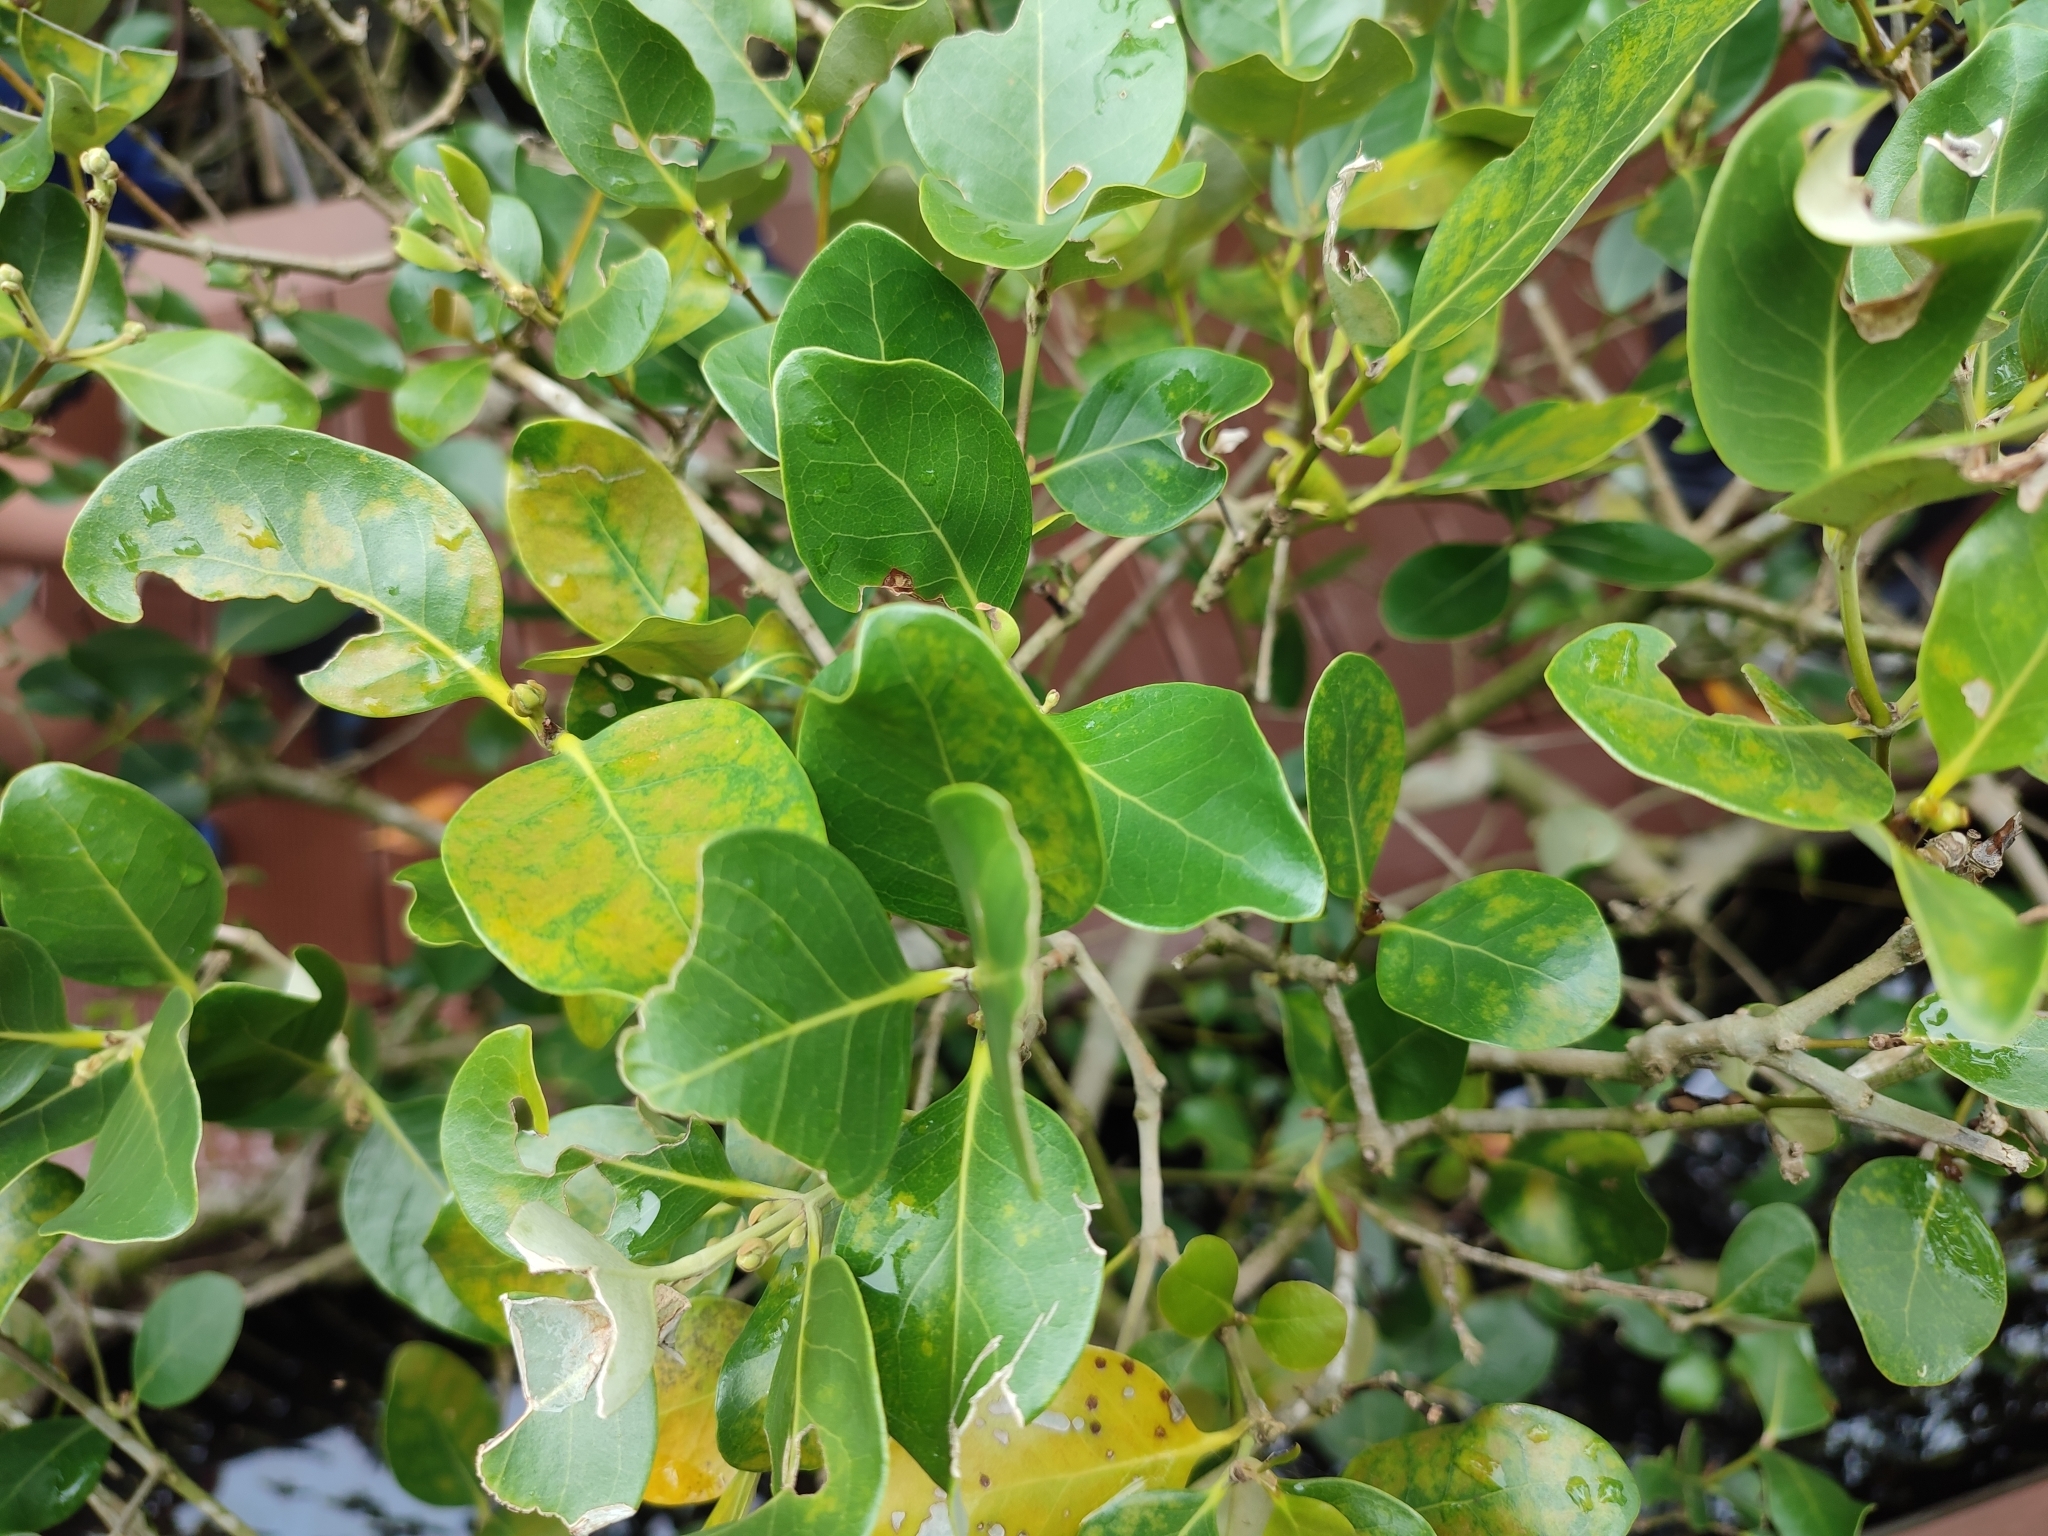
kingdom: Plantae
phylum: Tracheophyta
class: Magnoliopsida
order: Lamiales
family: Acanthaceae
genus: Avicennia
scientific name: Avicennia marina
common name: Gray mangrove
